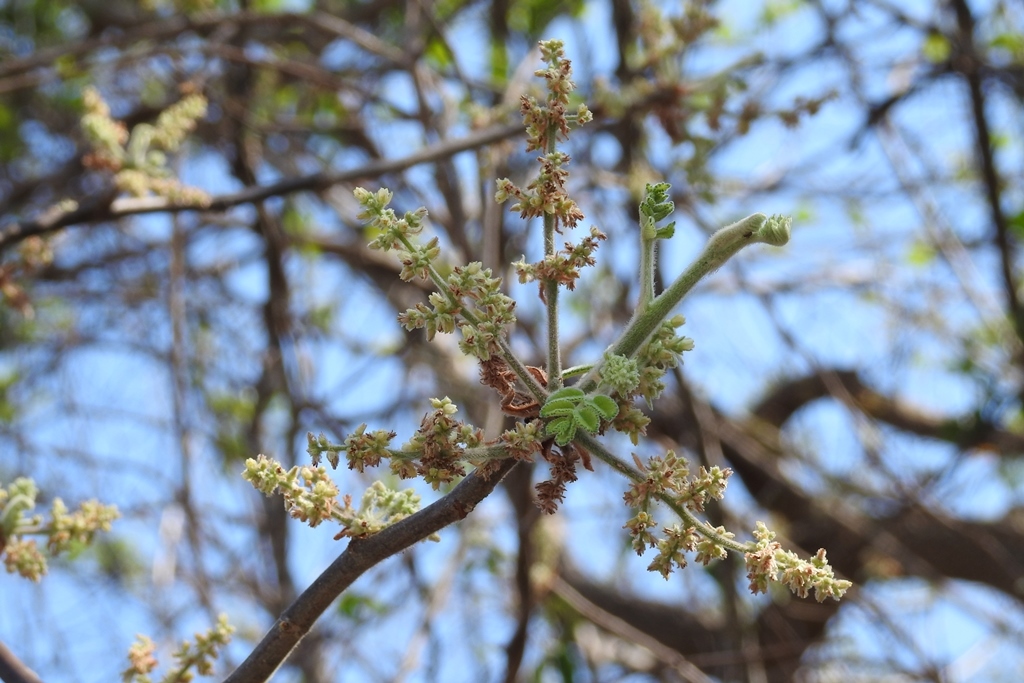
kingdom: Plantae
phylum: Tracheophyta
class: Magnoliopsida
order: Sapindales
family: Burseraceae
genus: Bursera
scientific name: Bursera excelsa
